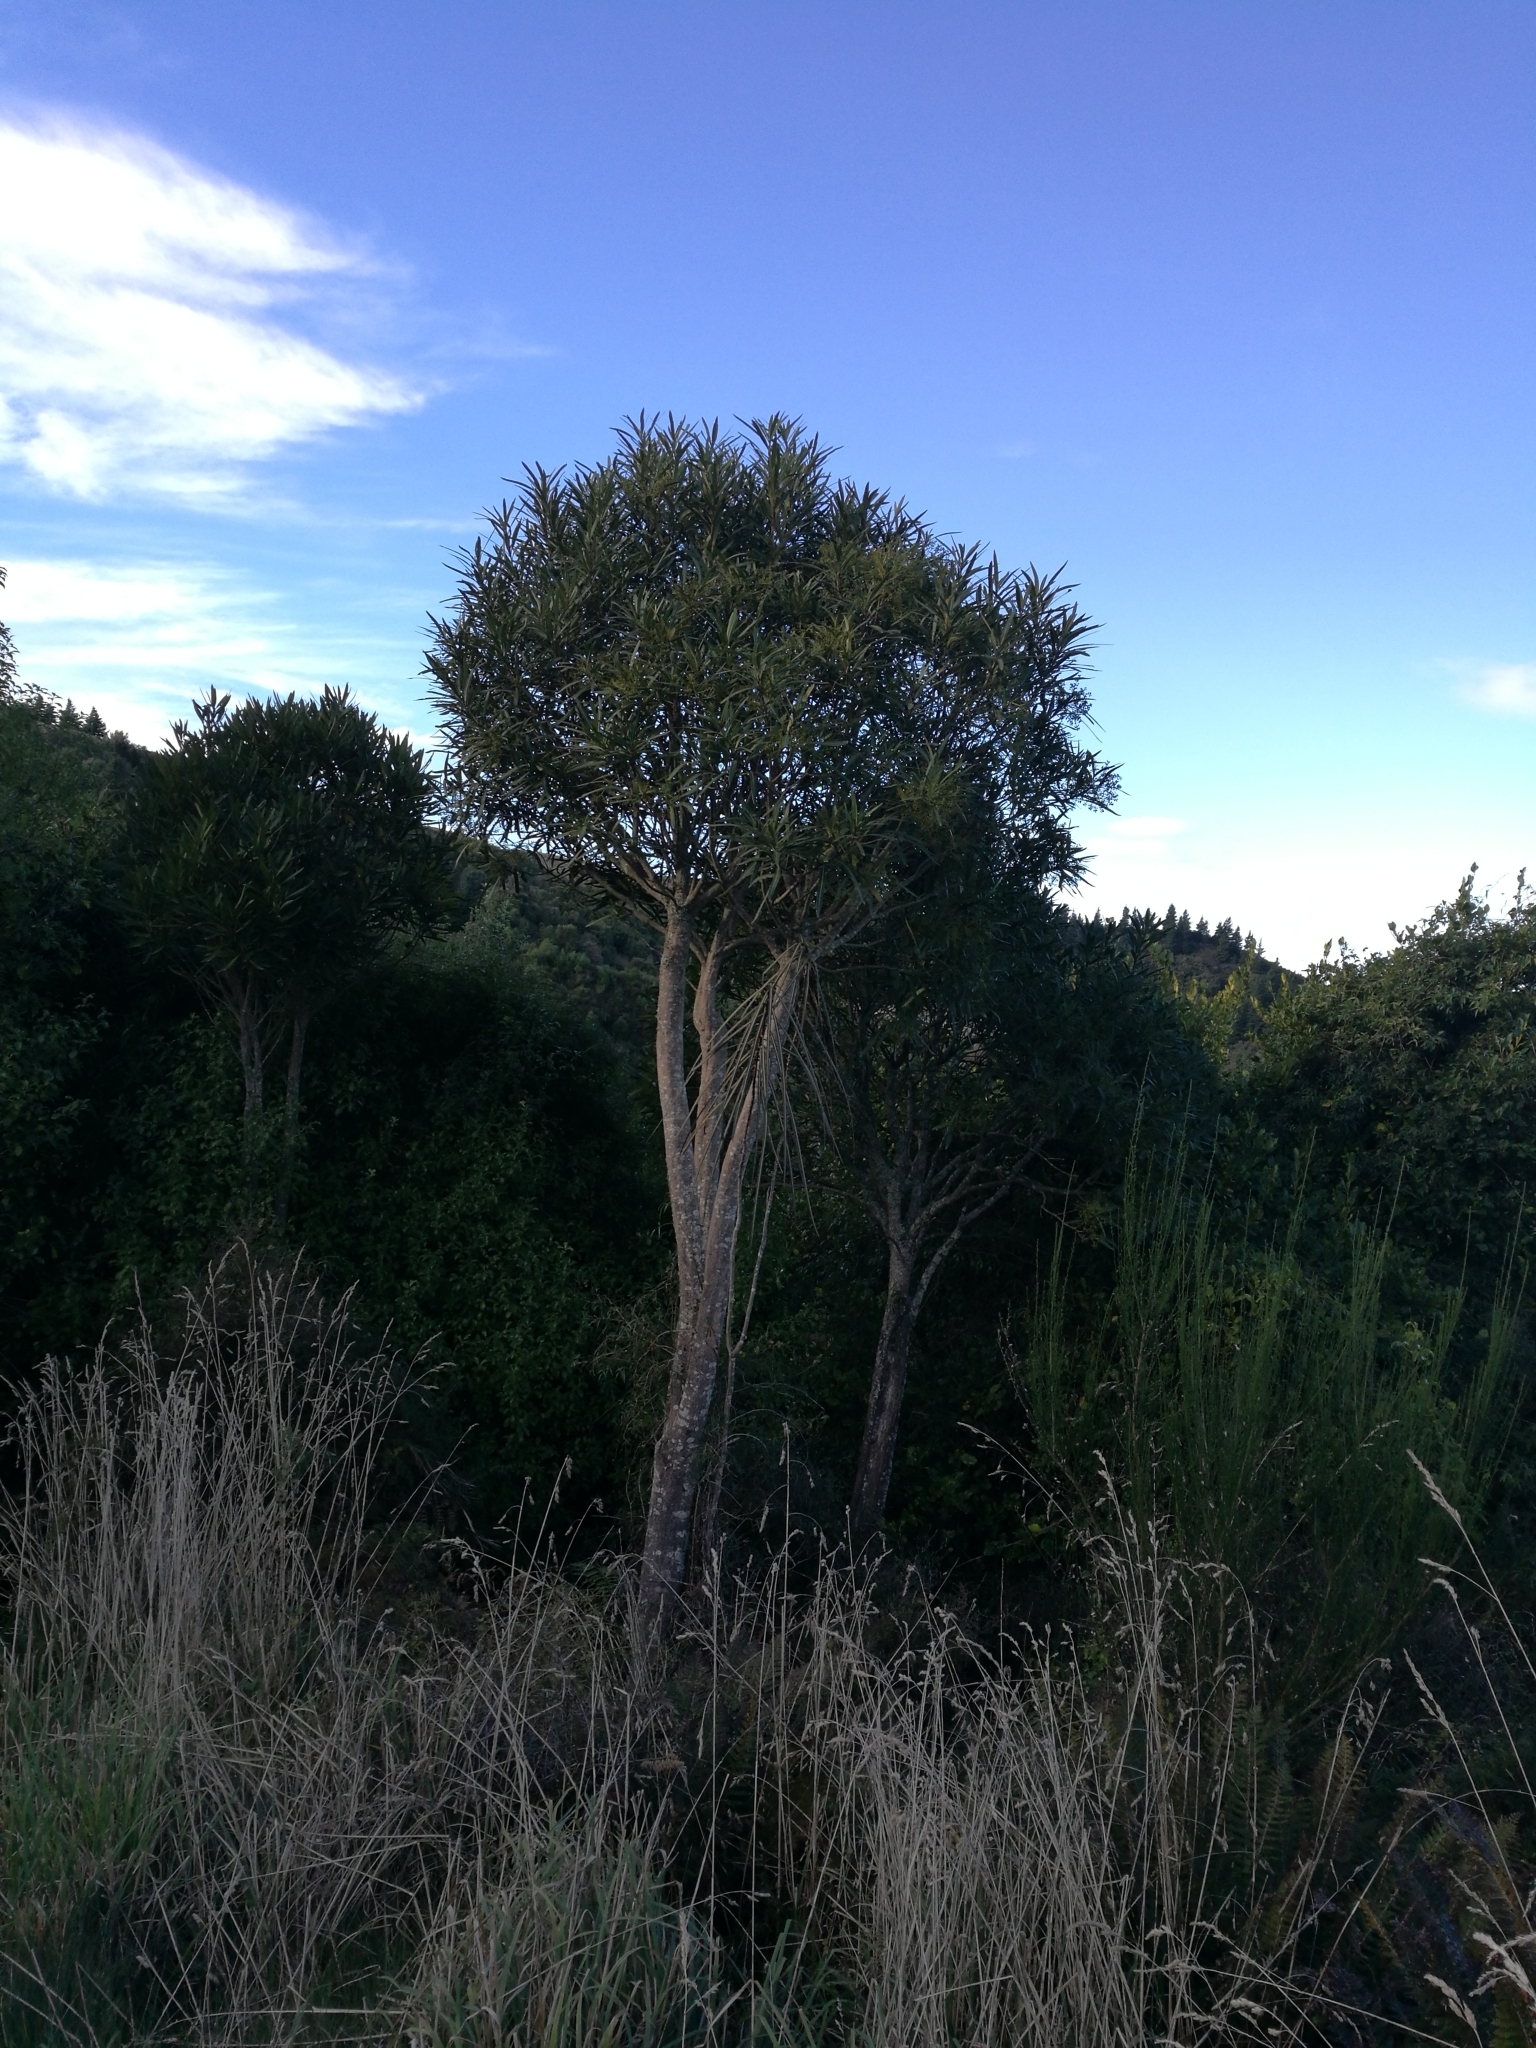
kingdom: Plantae
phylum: Tracheophyta
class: Magnoliopsida
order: Apiales
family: Araliaceae
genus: Pseudopanax
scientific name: Pseudopanax crassifolius
